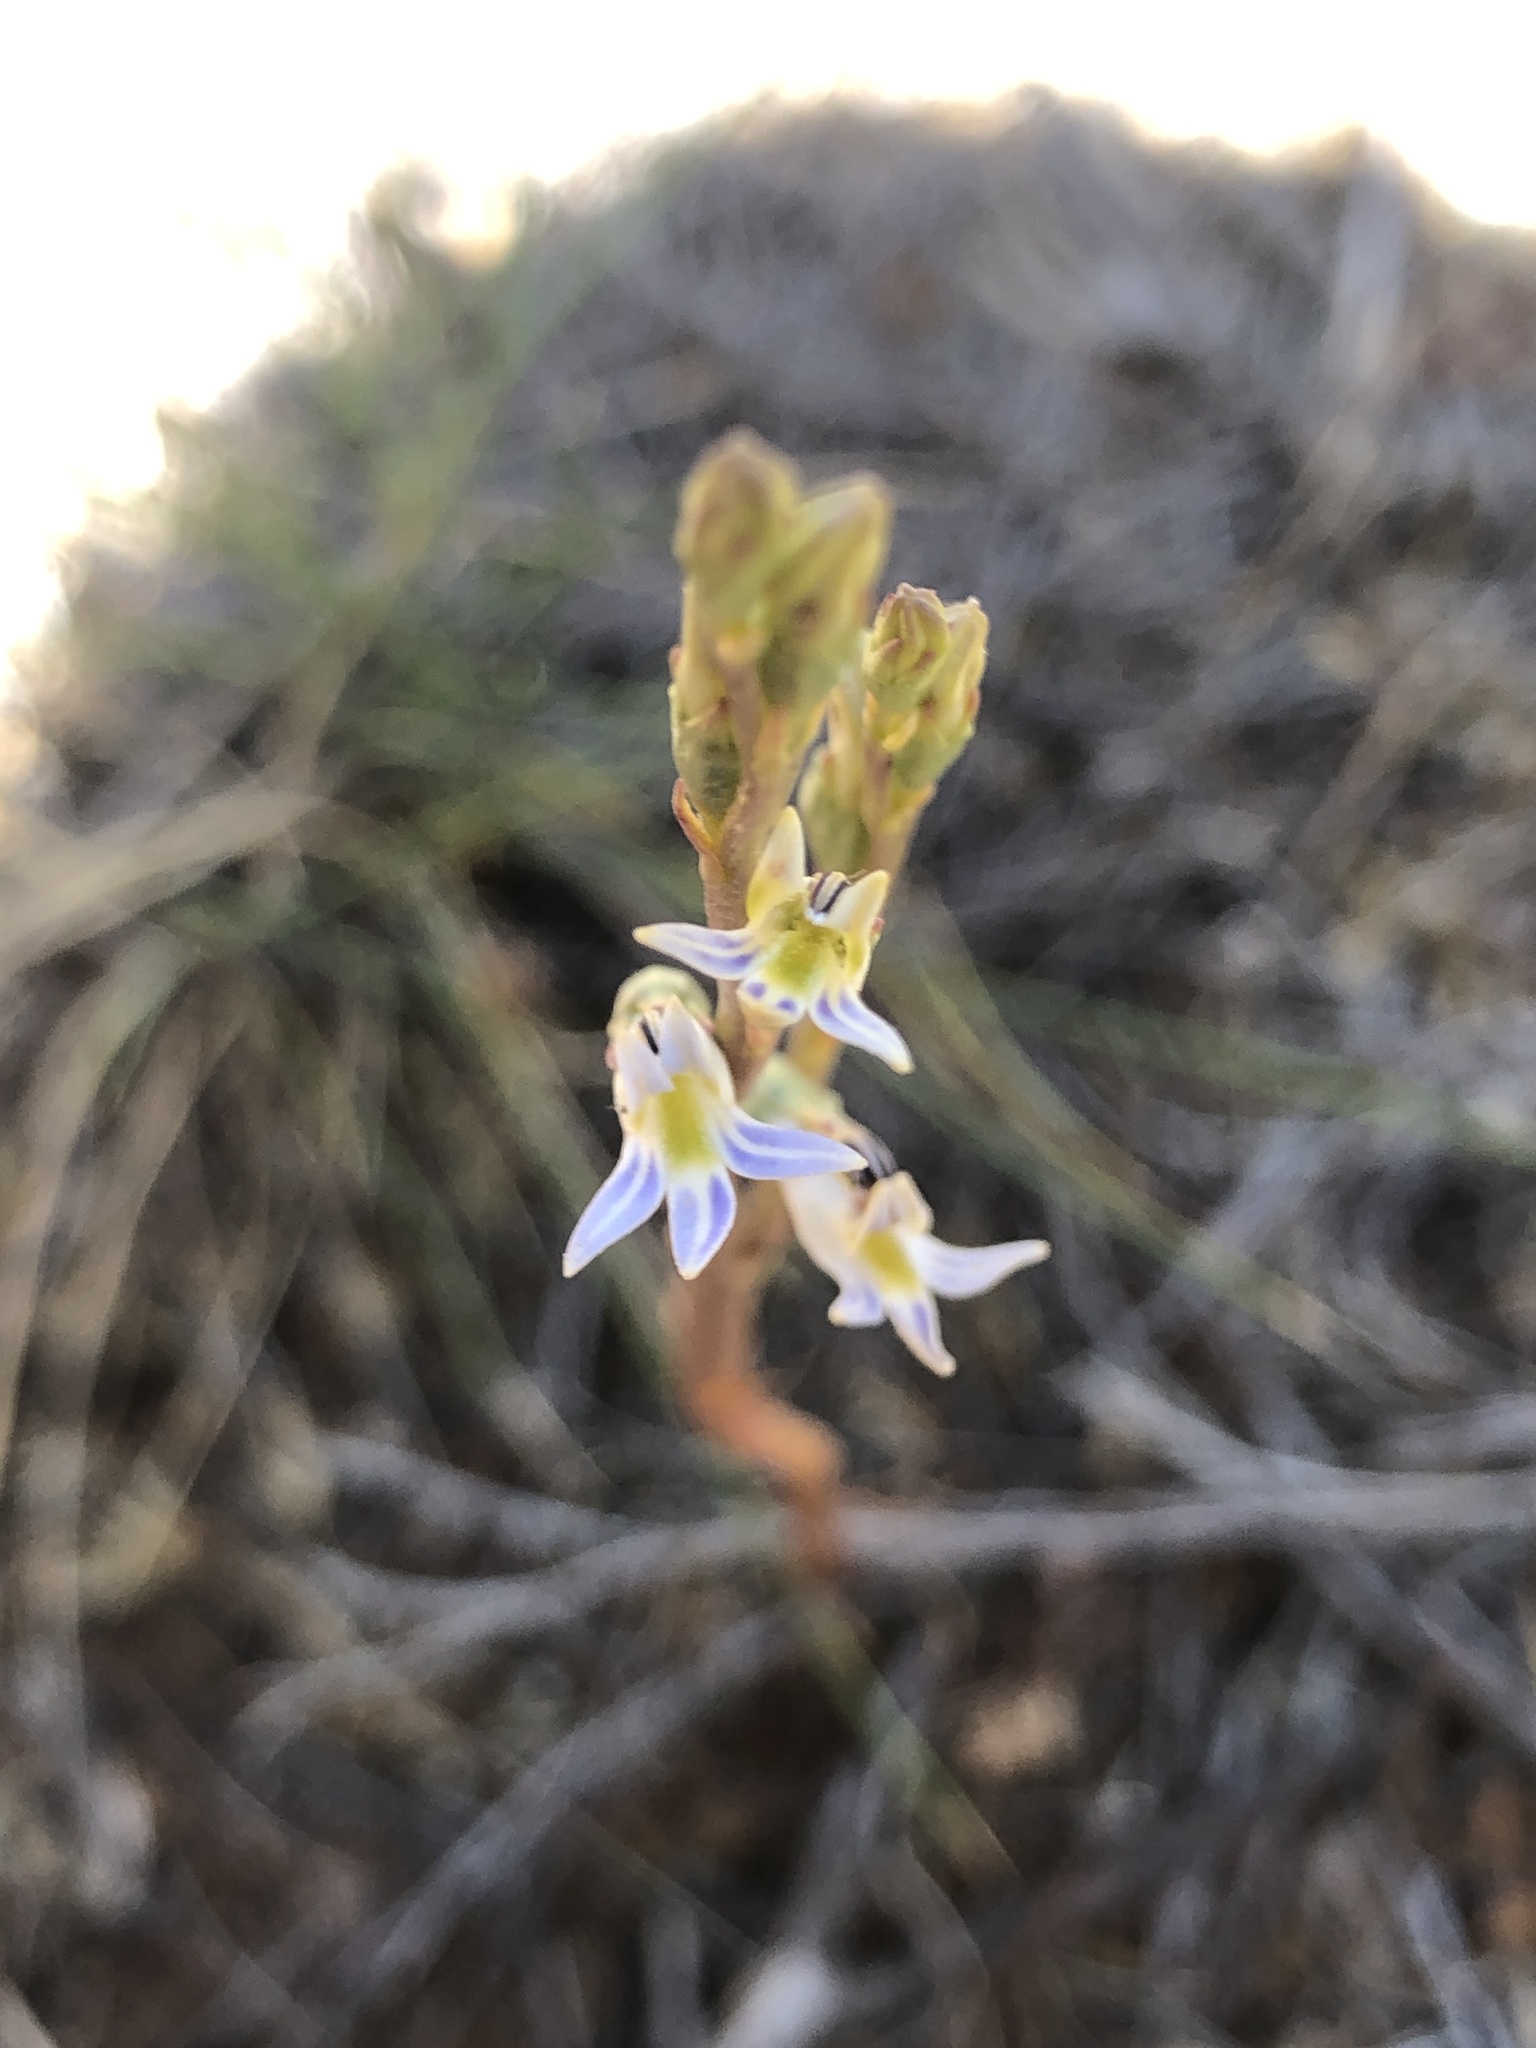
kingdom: Plantae
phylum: Tracheophyta
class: Magnoliopsida
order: Asterales
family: Campanulaceae
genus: Lobelia
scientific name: Lobelia gibbosa
